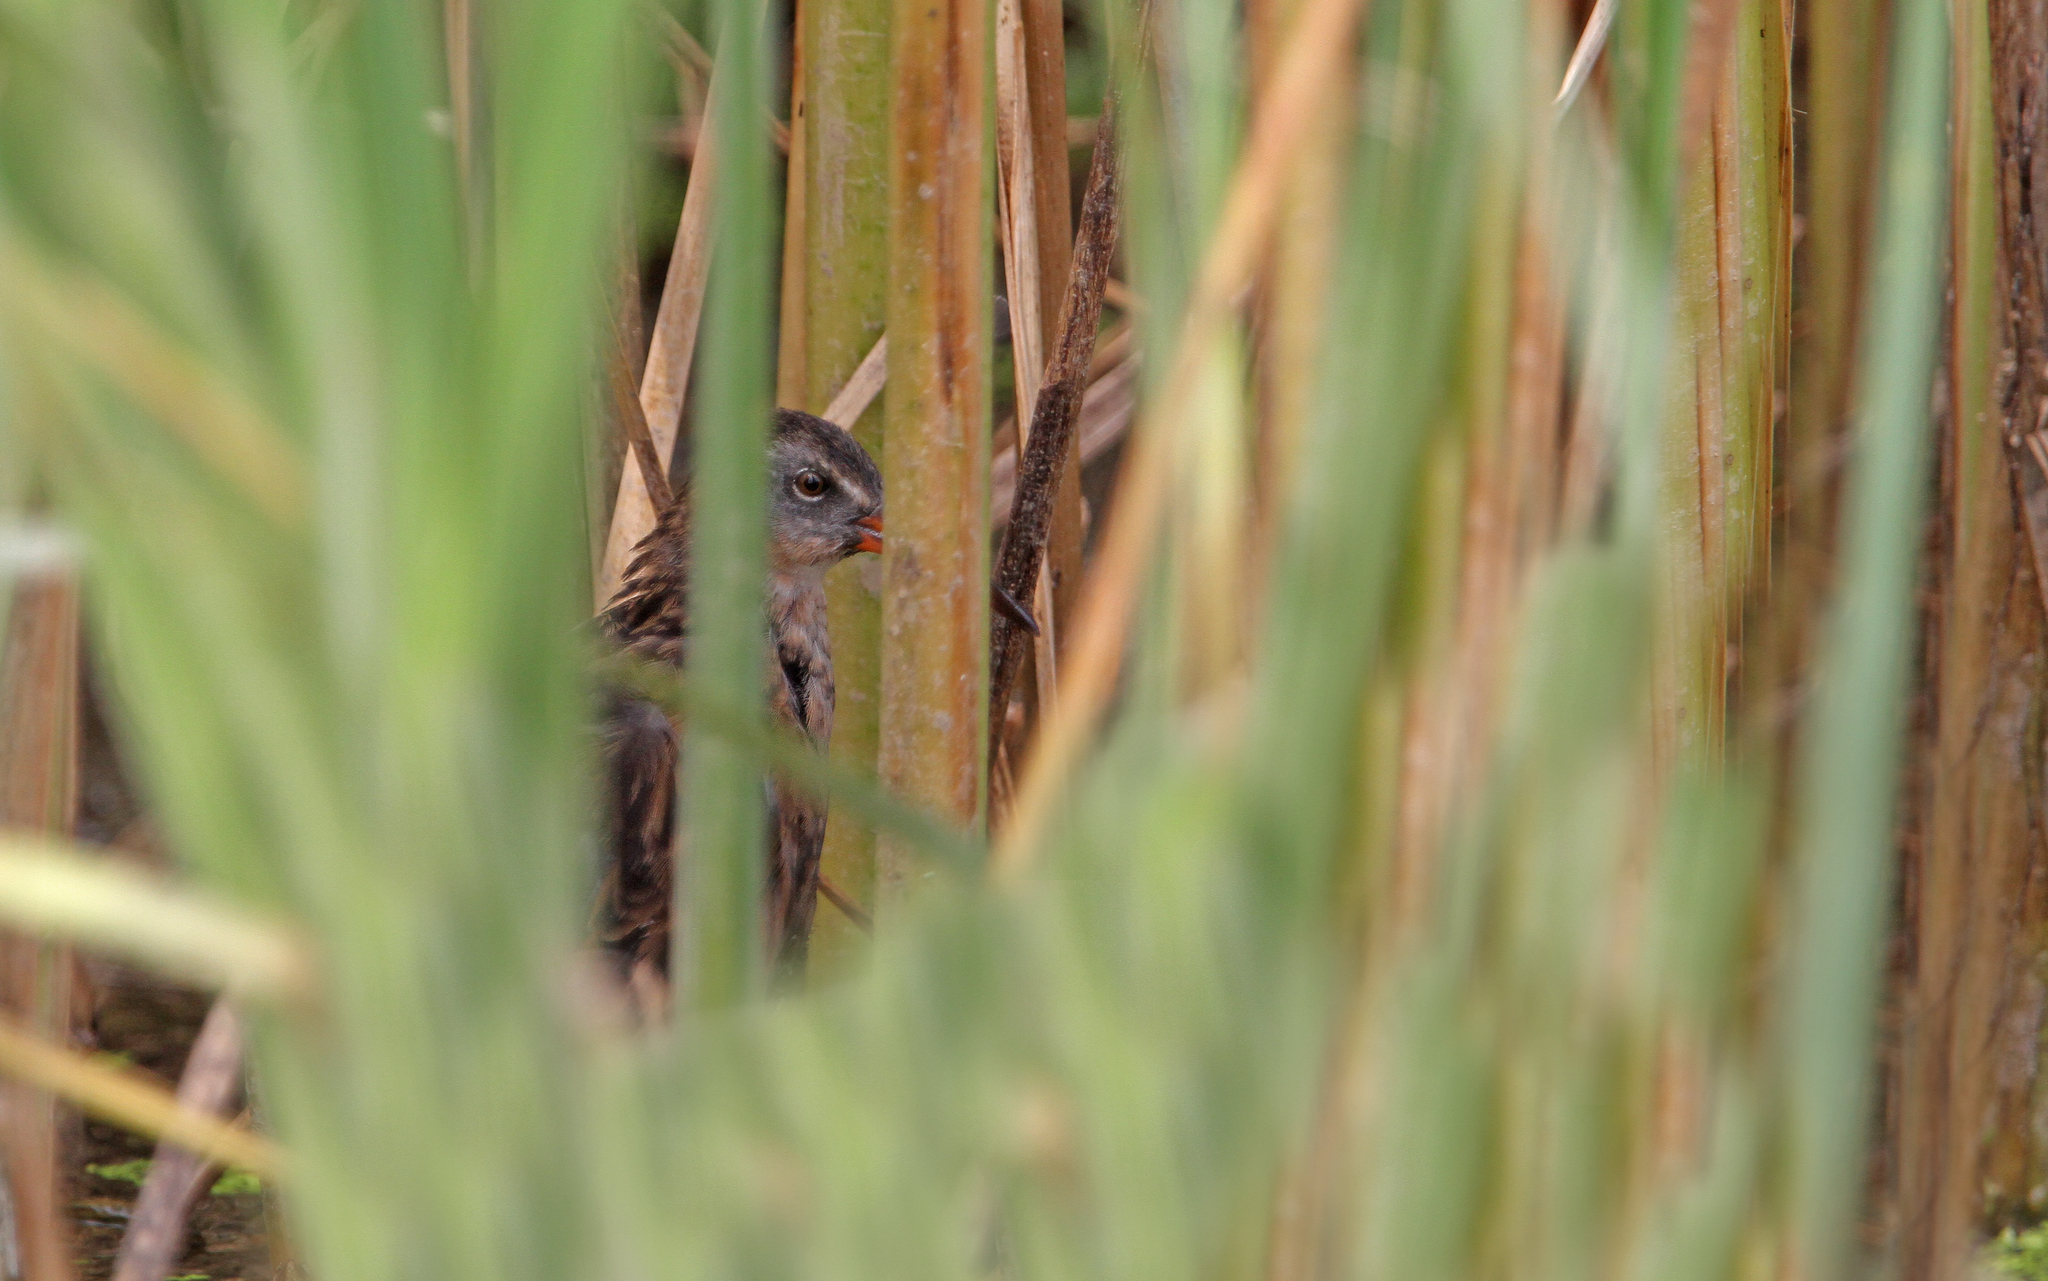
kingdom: Animalia
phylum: Chordata
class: Aves
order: Gruiformes
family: Rallidae
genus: Rallus
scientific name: Rallus limicola
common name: Virginia rail
